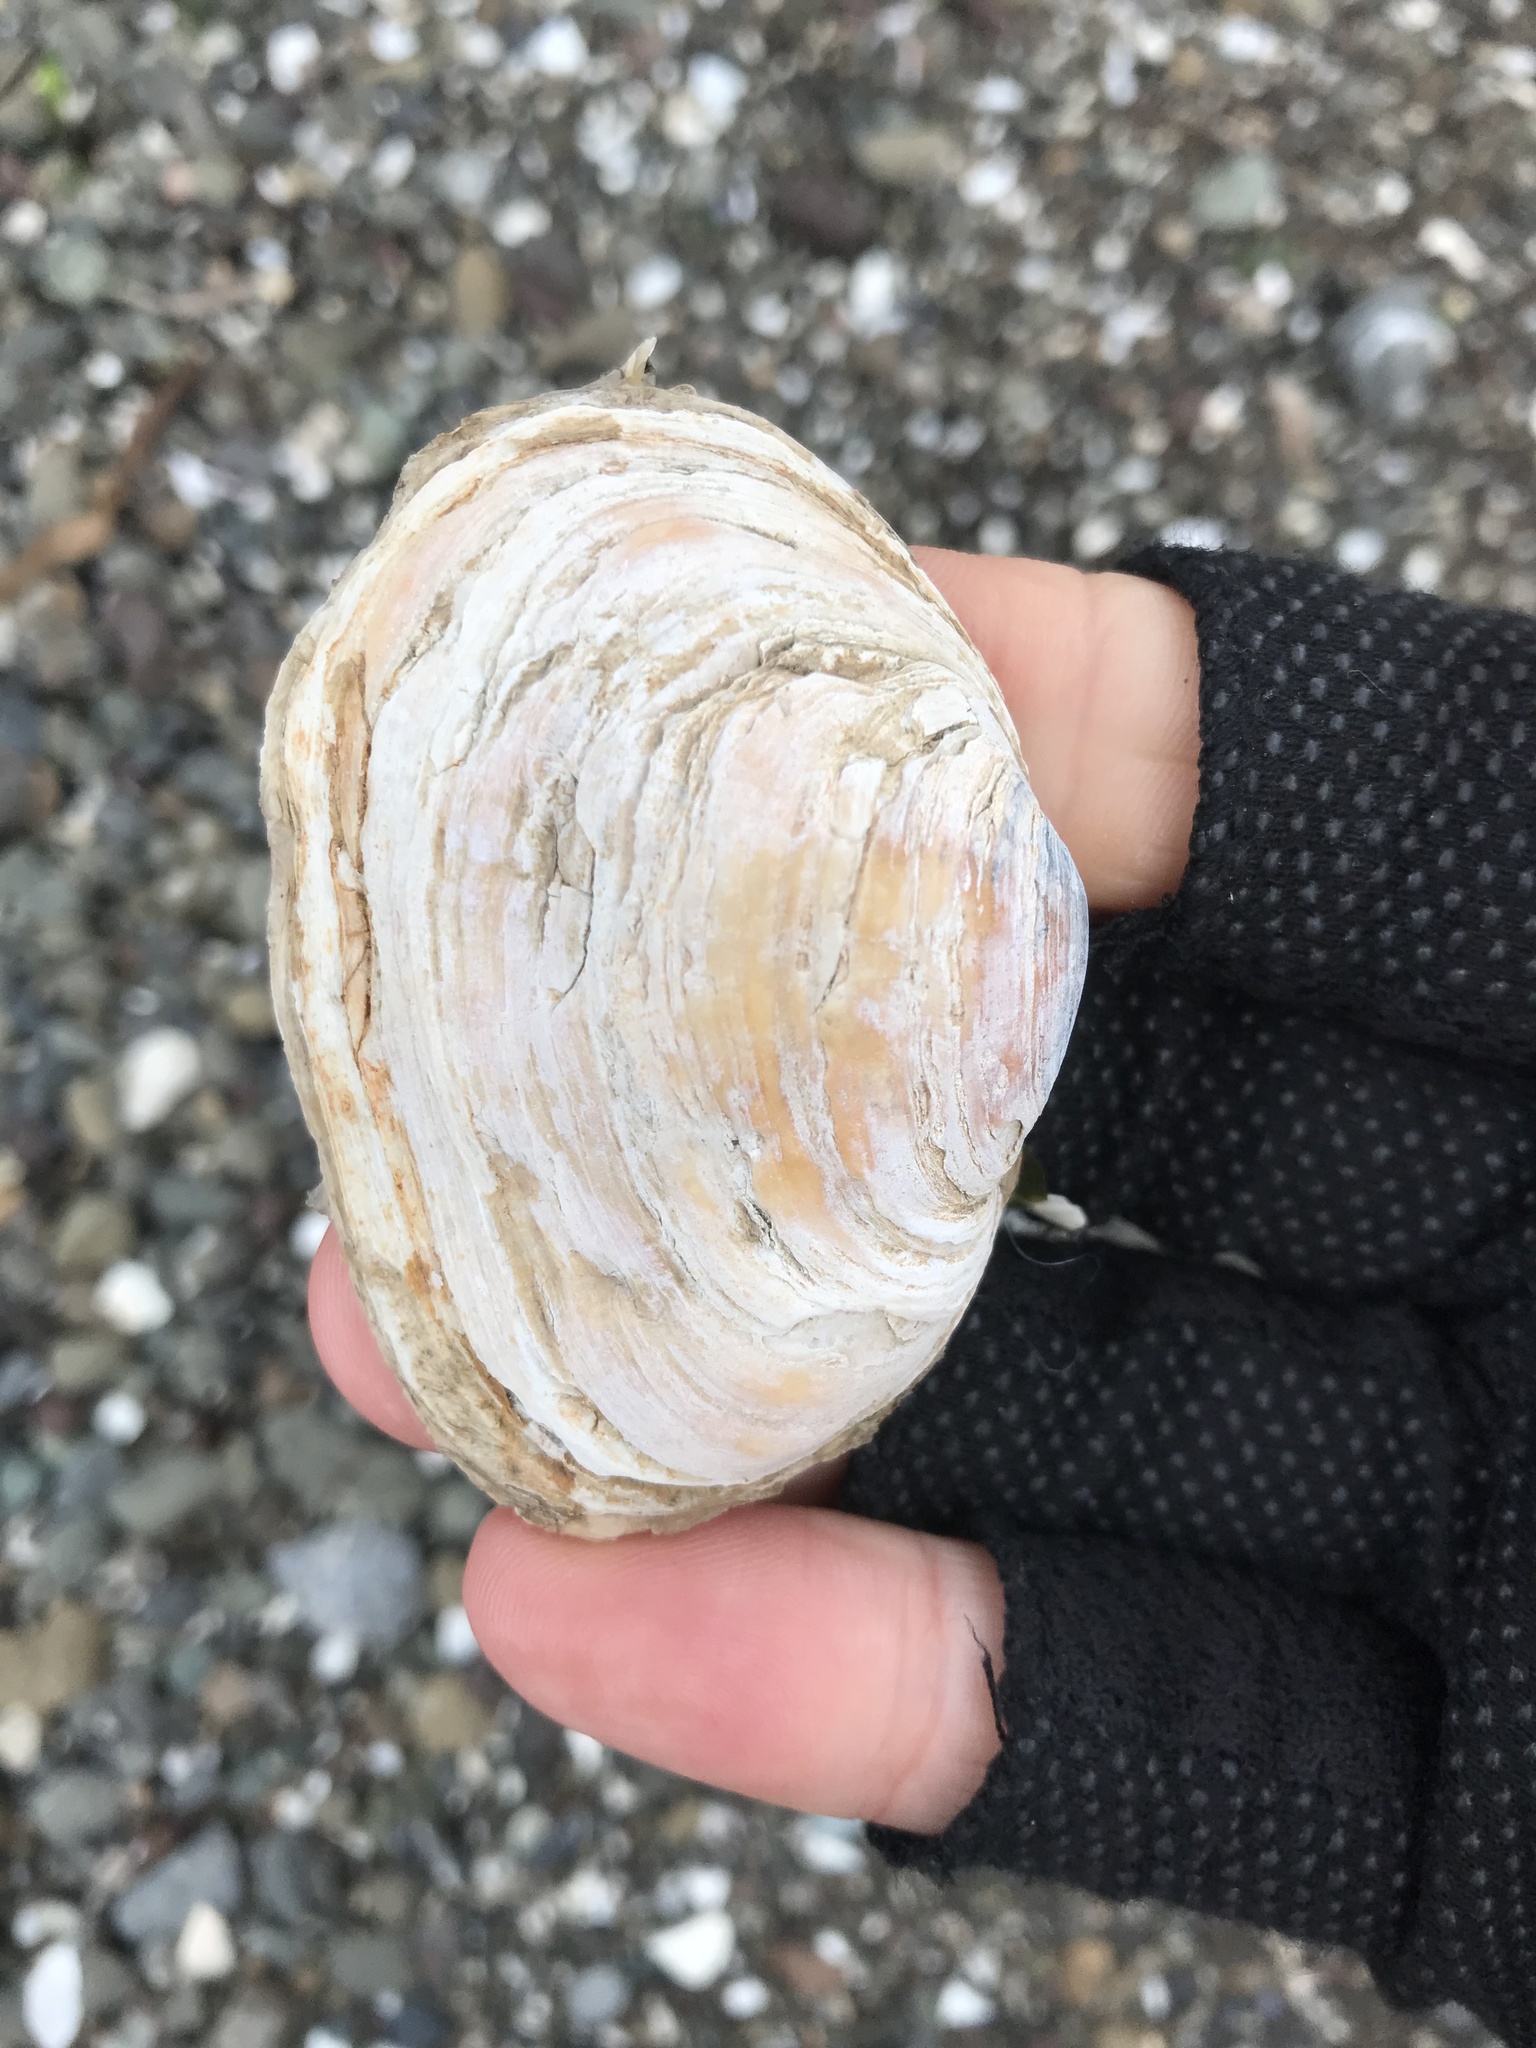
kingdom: Animalia
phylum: Mollusca
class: Bivalvia
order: Myida
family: Myidae
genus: Mya
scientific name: Mya arenaria
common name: Soft-shelled clam
